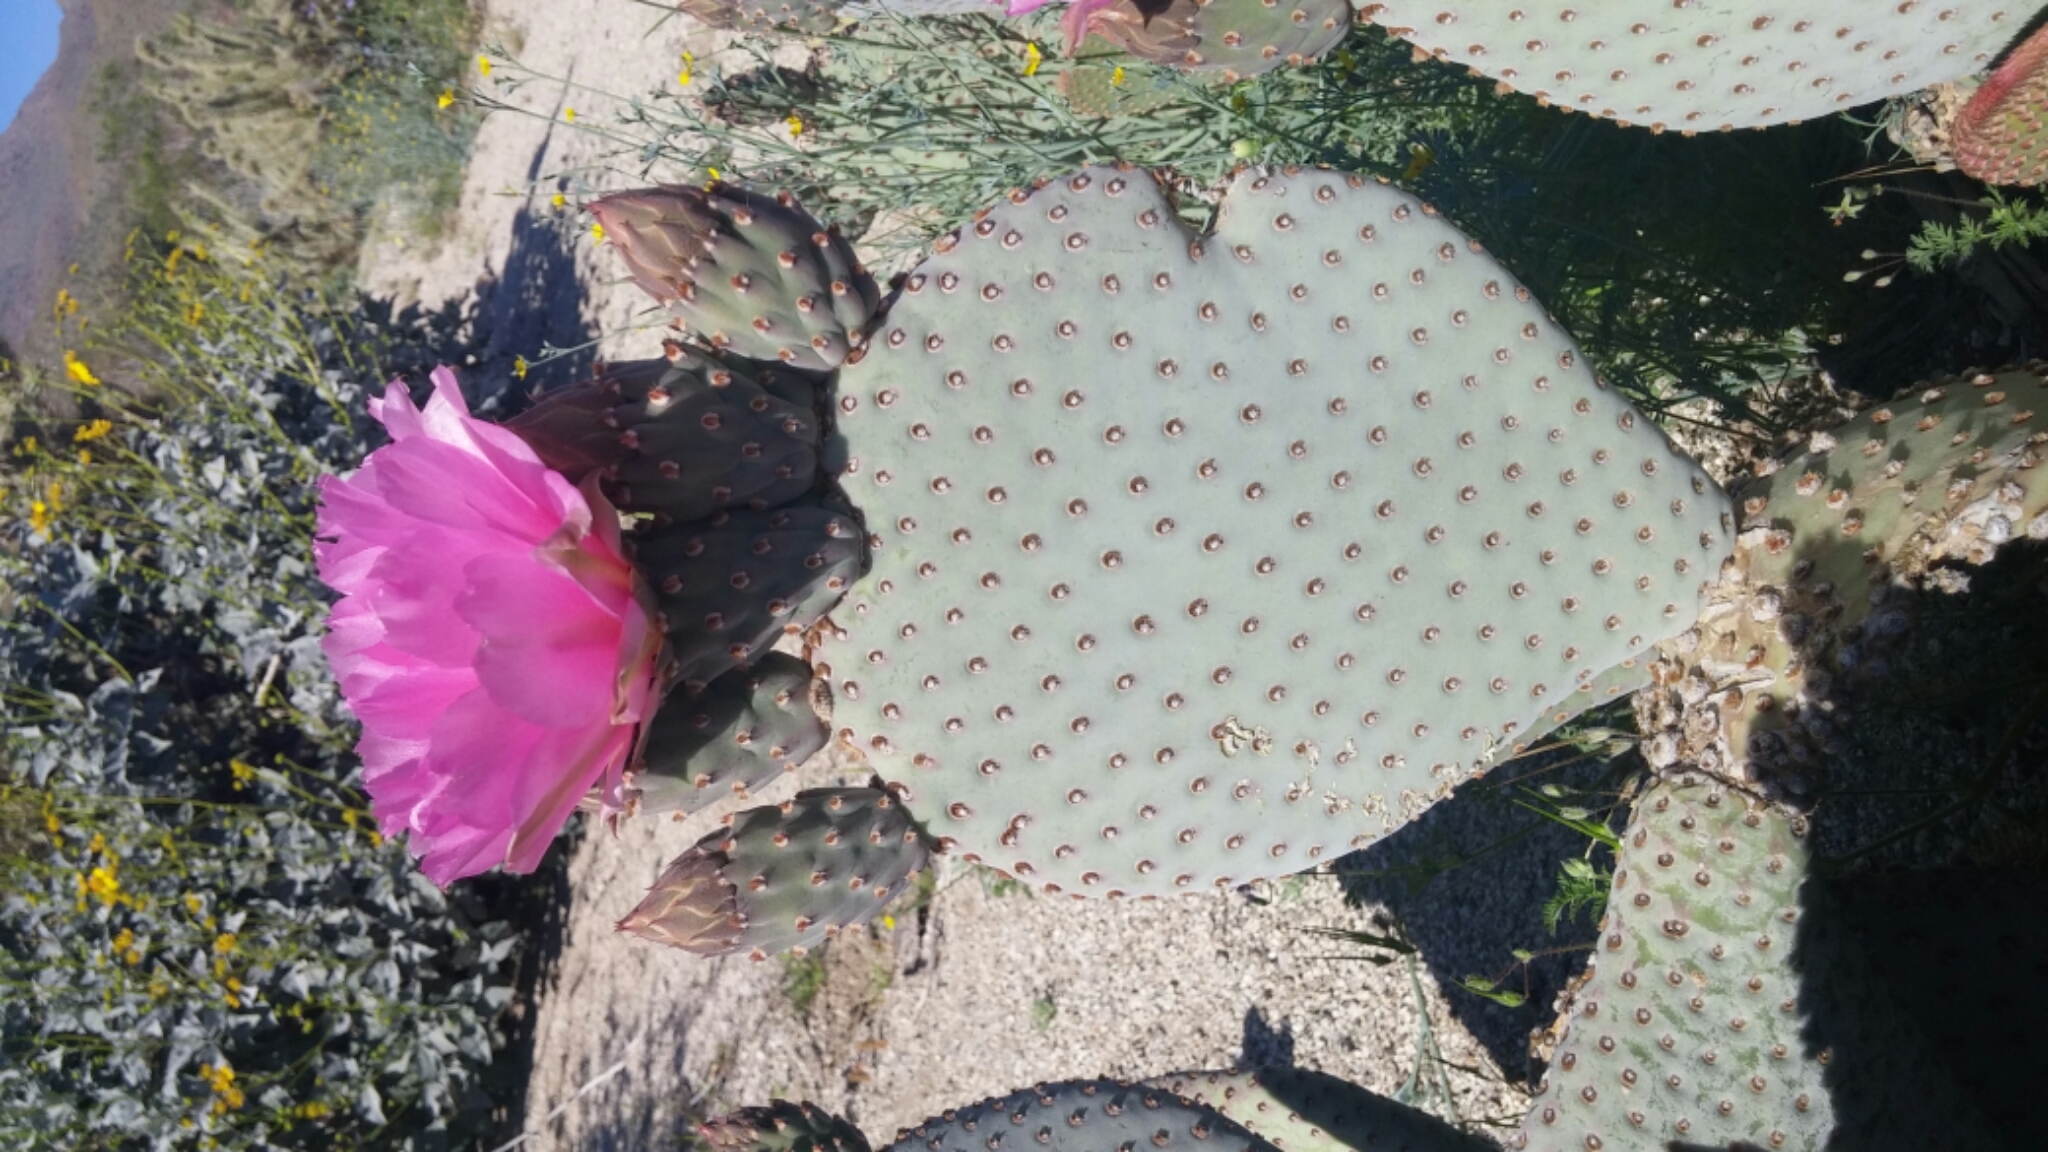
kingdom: Plantae
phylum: Tracheophyta
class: Magnoliopsida
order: Caryophyllales
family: Cactaceae
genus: Opuntia
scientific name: Opuntia basilaris
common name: Beavertail prickly-pear
